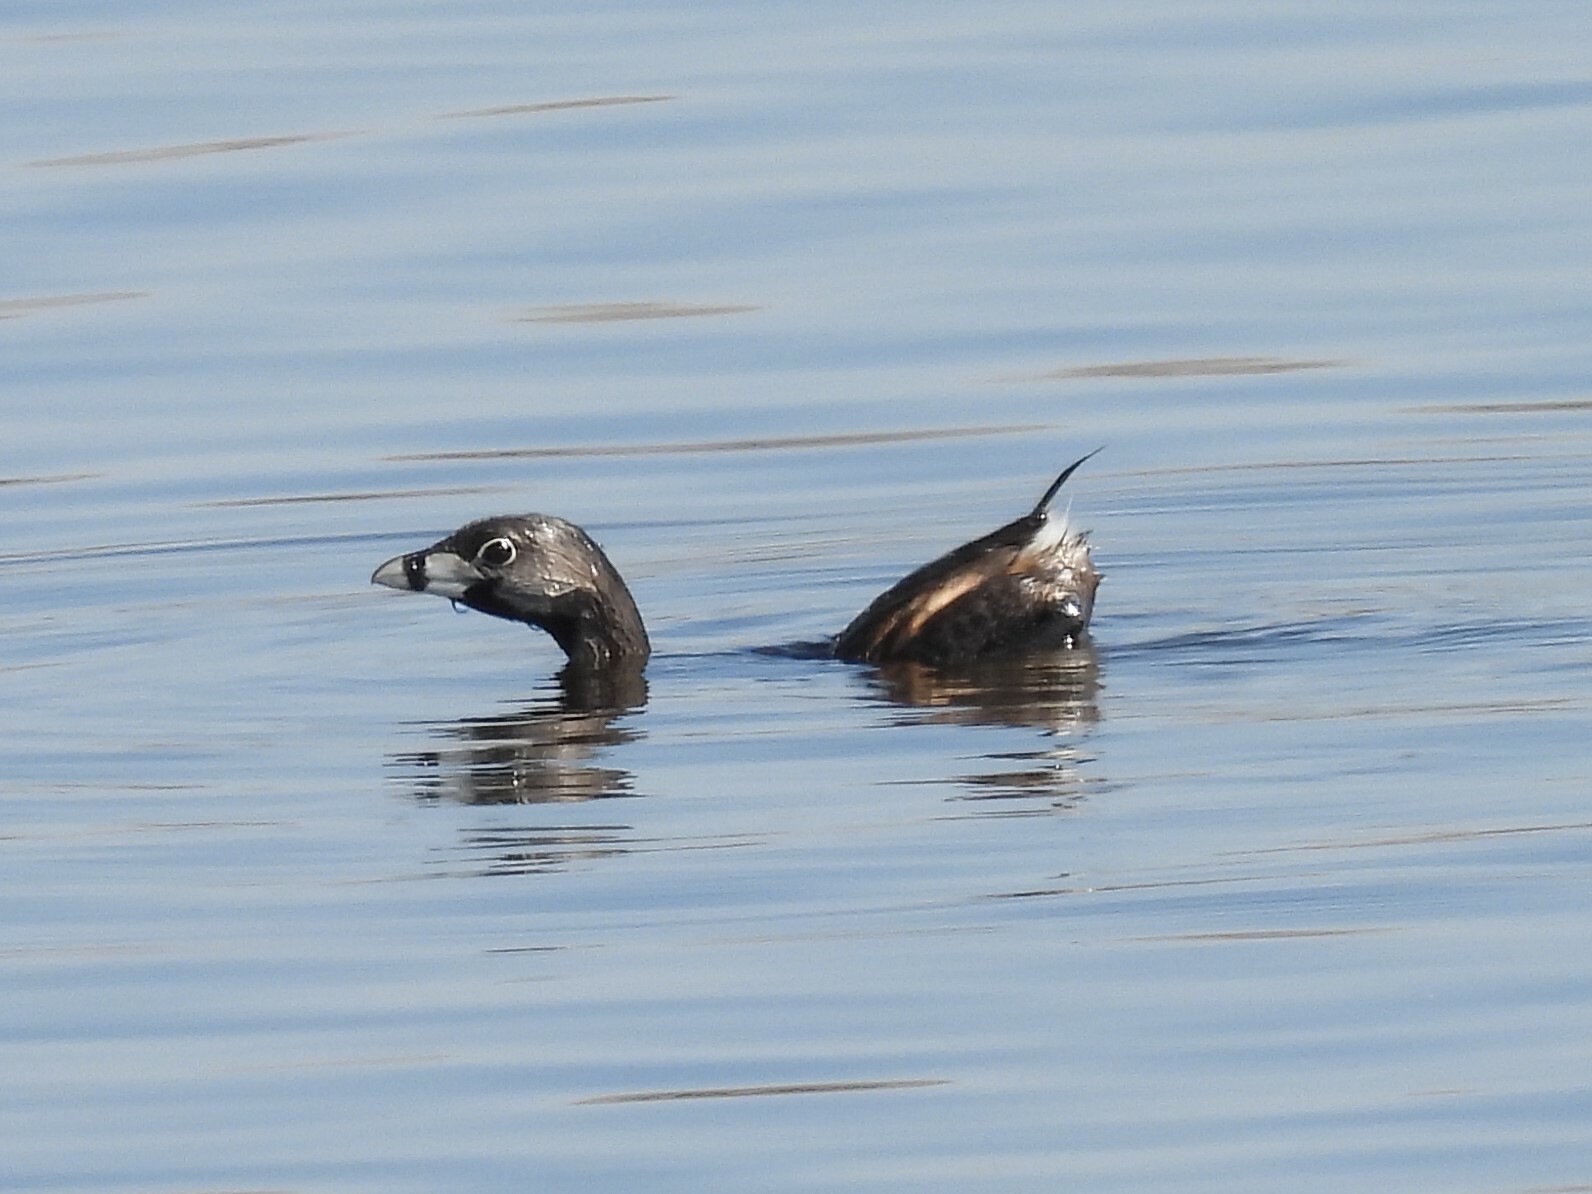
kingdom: Animalia
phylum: Chordata
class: Aves
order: Podicipediformes
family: Podicipedidae
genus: Podilymbus
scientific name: Podilymbus podiceps
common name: Pied-billed grebe
